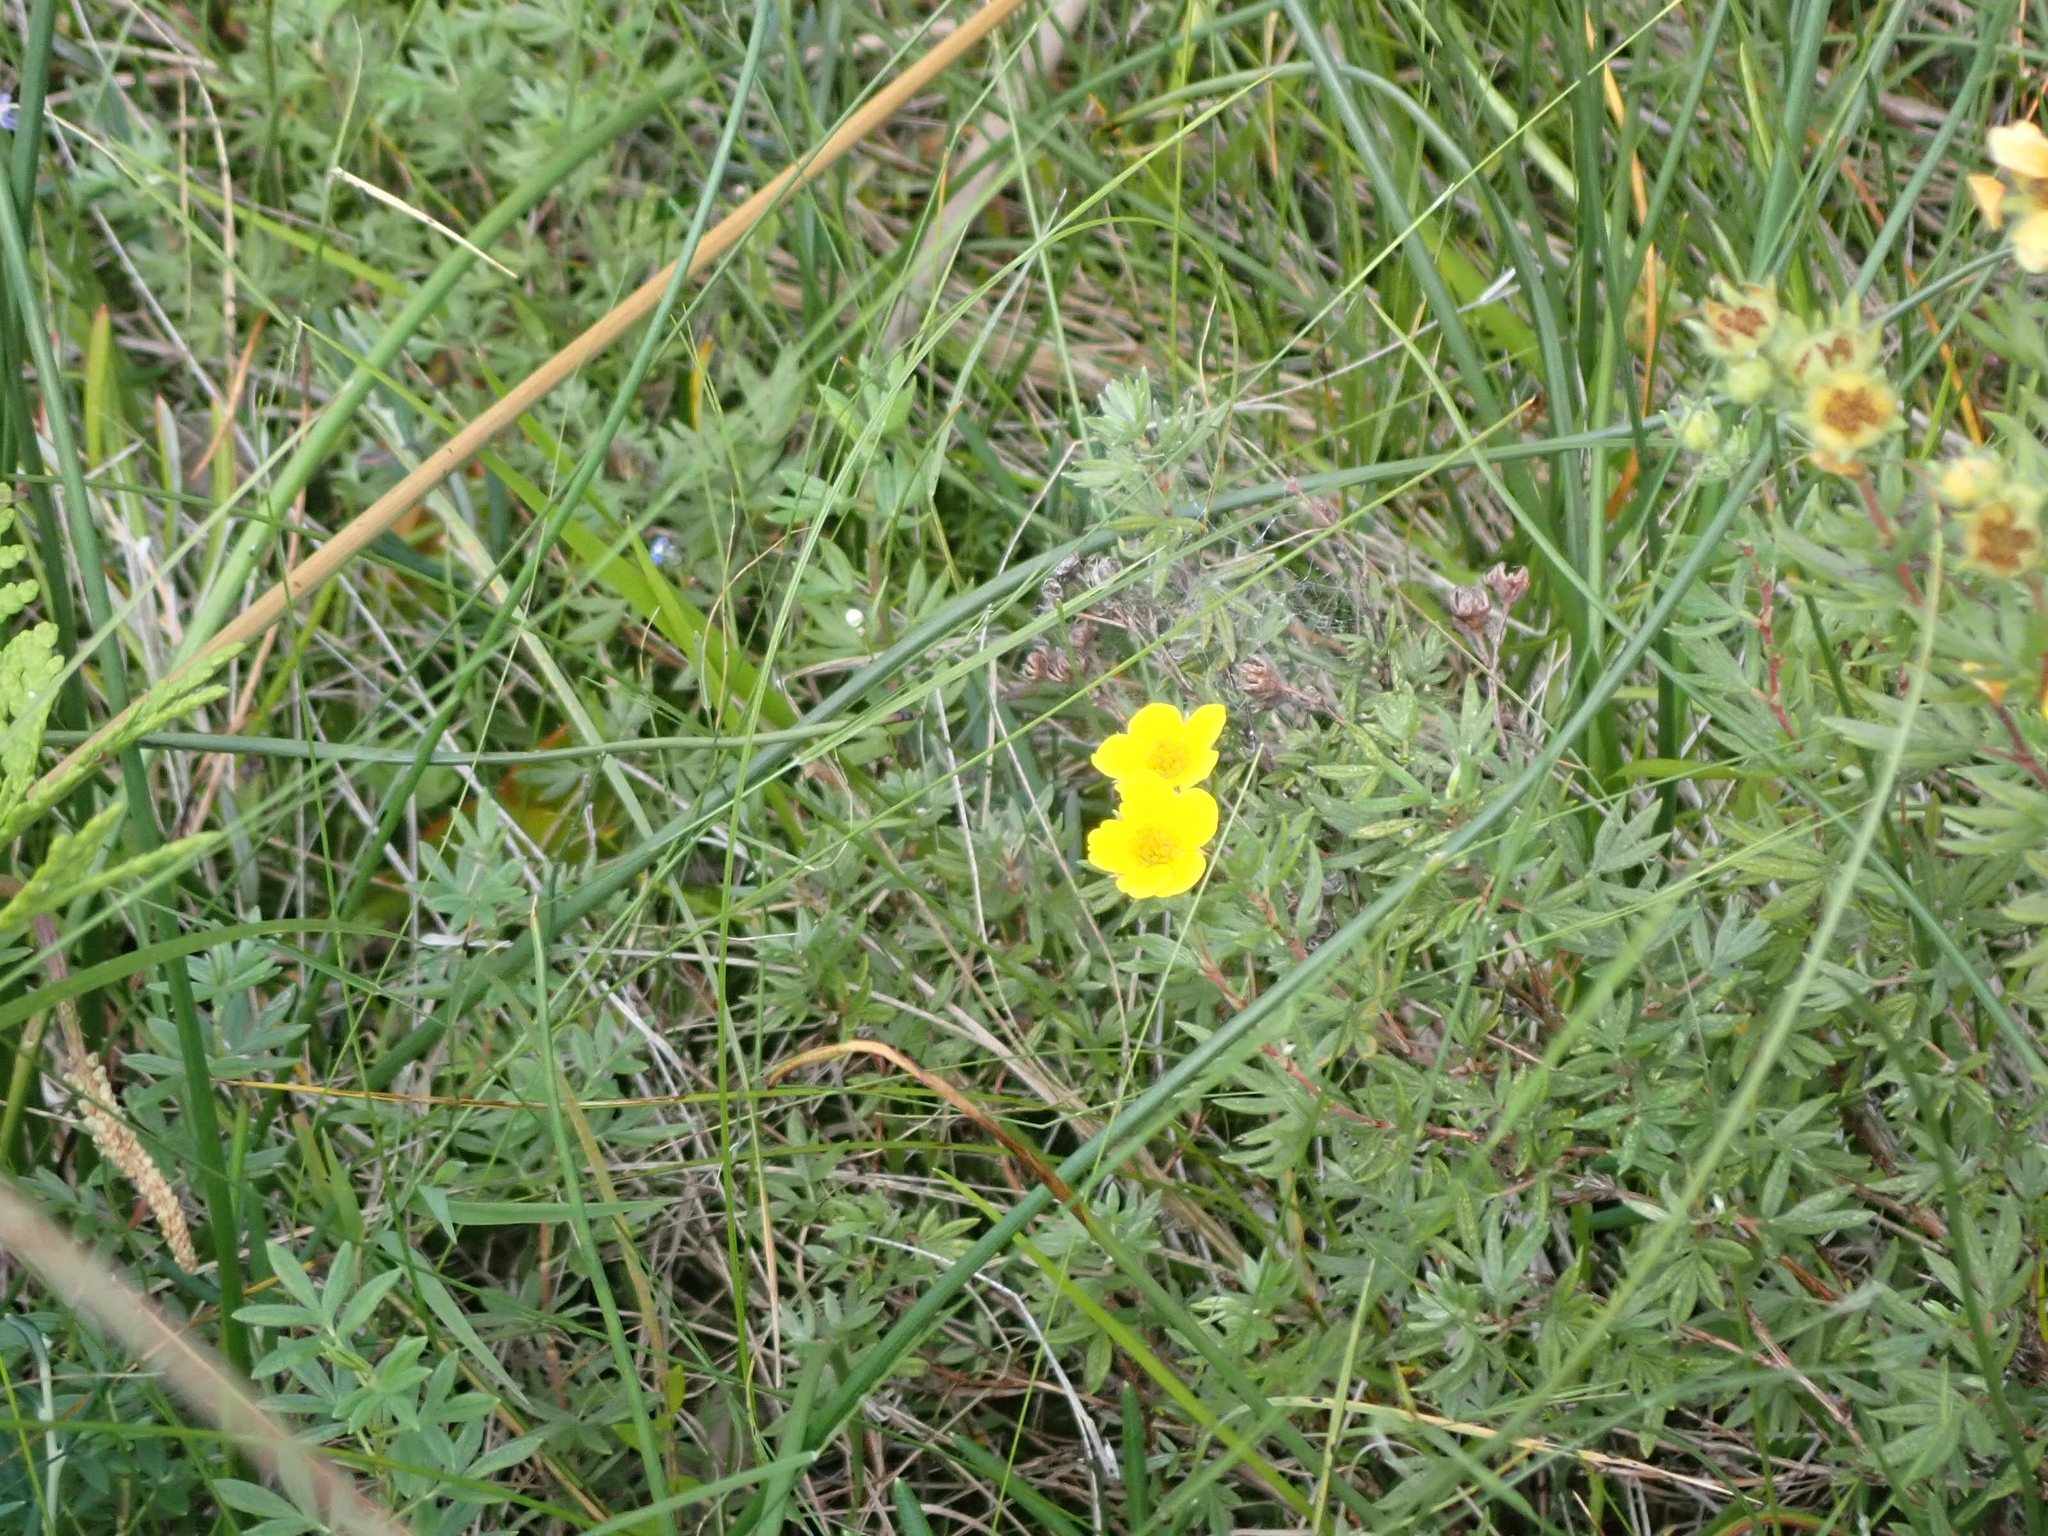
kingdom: Plantae
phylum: Tracheophyta
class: Magnoliopsida
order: Rosales
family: Rosaceae
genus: Dasiphora
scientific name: Dasiphora fruticosa
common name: Shrubby cinquefoil
